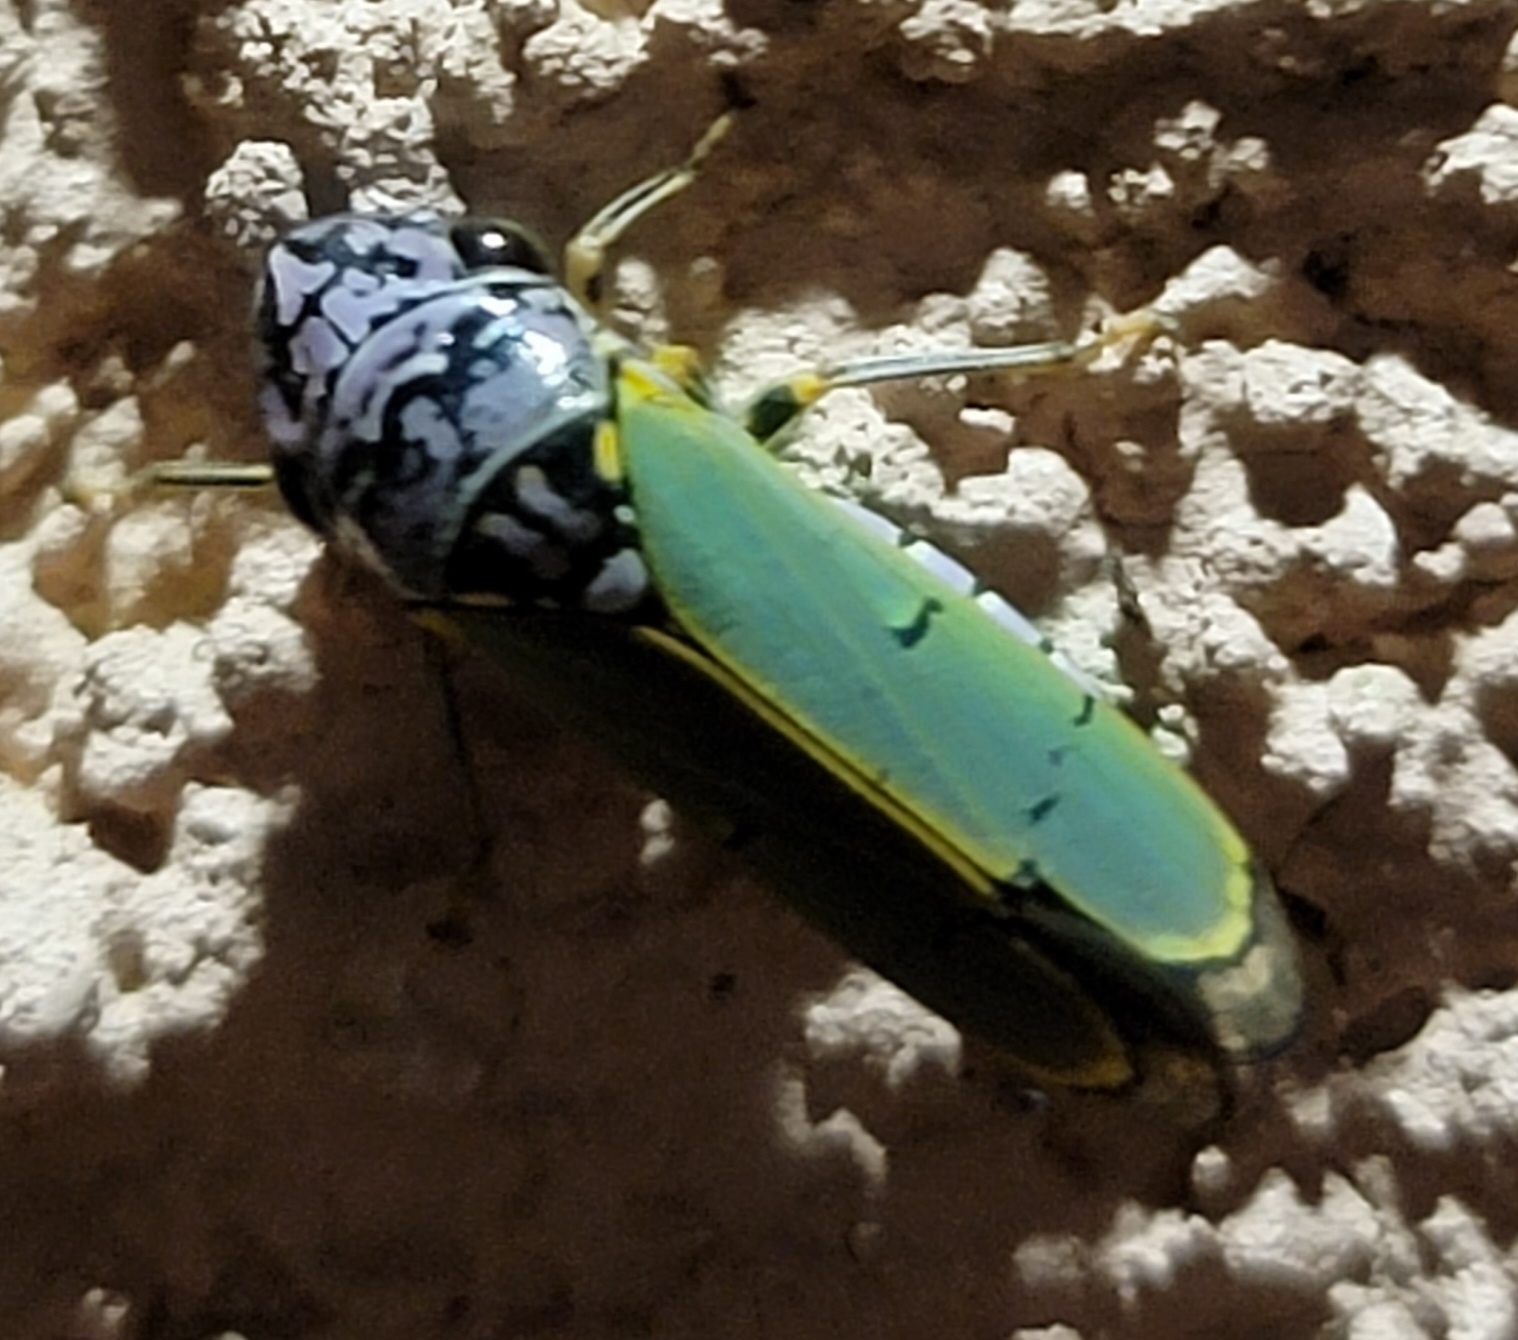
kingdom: Animalia
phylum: Arthropoda
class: Insecta
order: Hemiptera
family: Cicadellidae
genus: Oncometopia
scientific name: Oncometopia alpha
